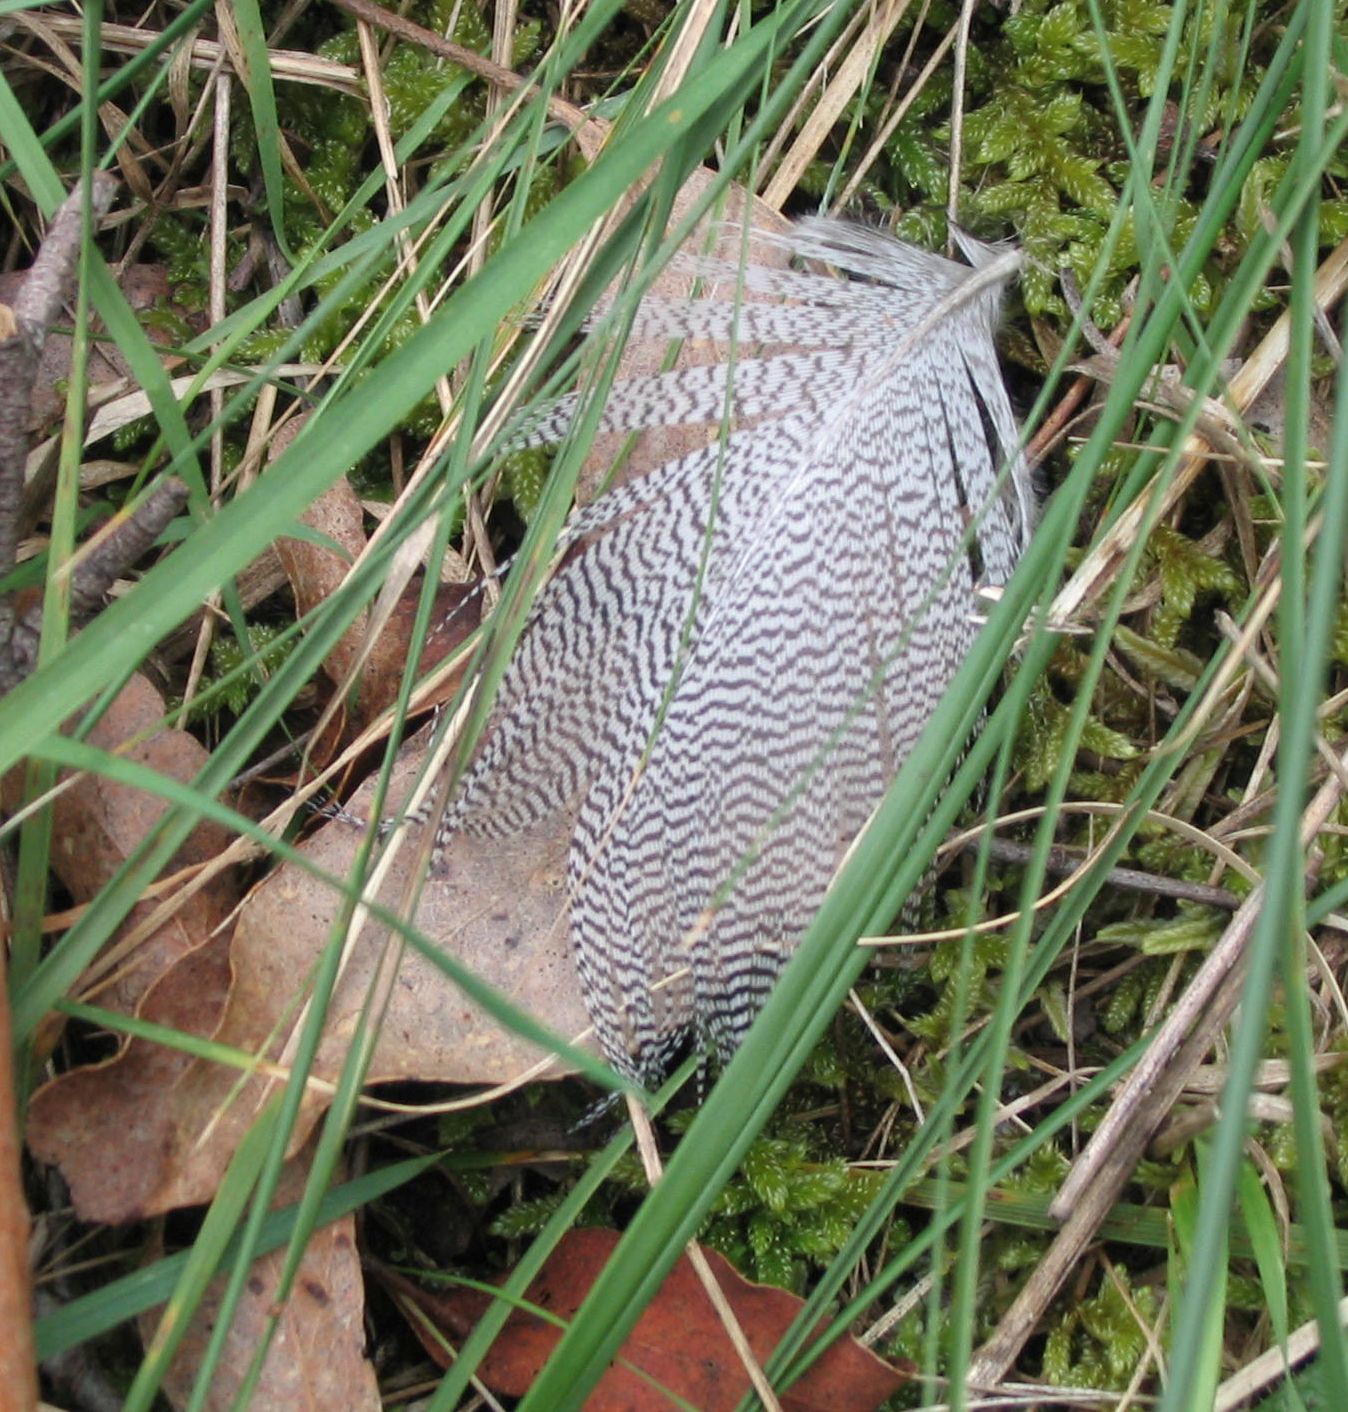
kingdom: Animalia
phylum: Chordata
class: Aves
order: Anseriformes
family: Anatidae
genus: Chenonetta
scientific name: Chenonetta jubata
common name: Maned duck
